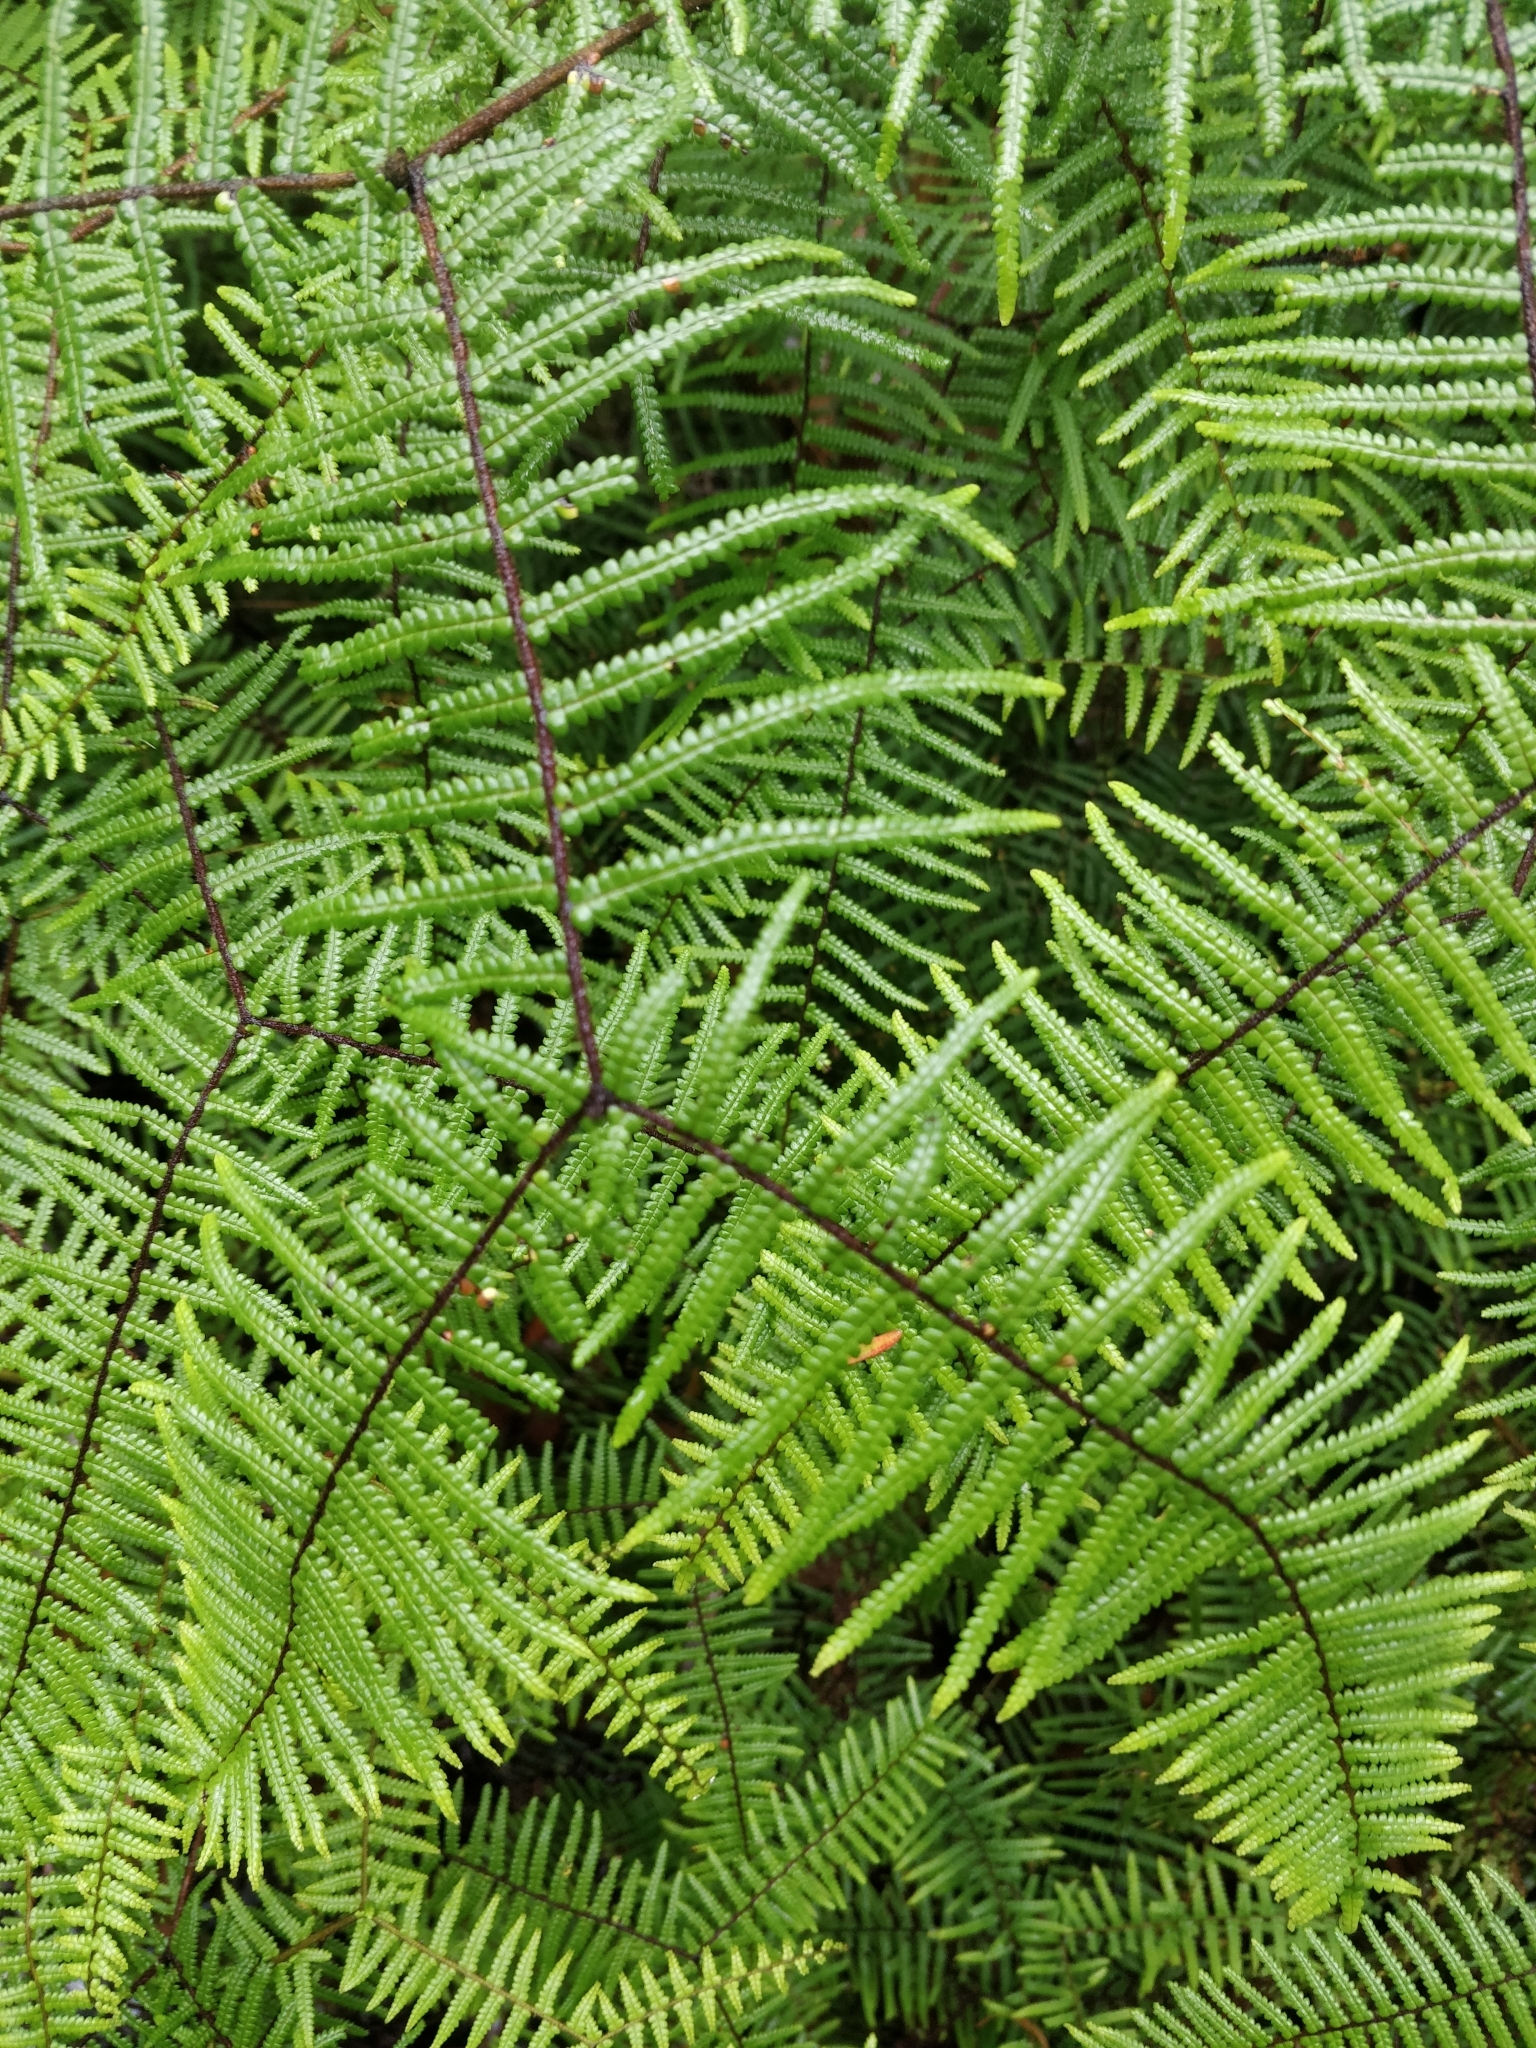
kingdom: Plantae
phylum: Tracheophyta
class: Polypodiopsida
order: Gleicheniales
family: Gleicheniaceae
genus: Gleichenia
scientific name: Gleichenia microphylla
